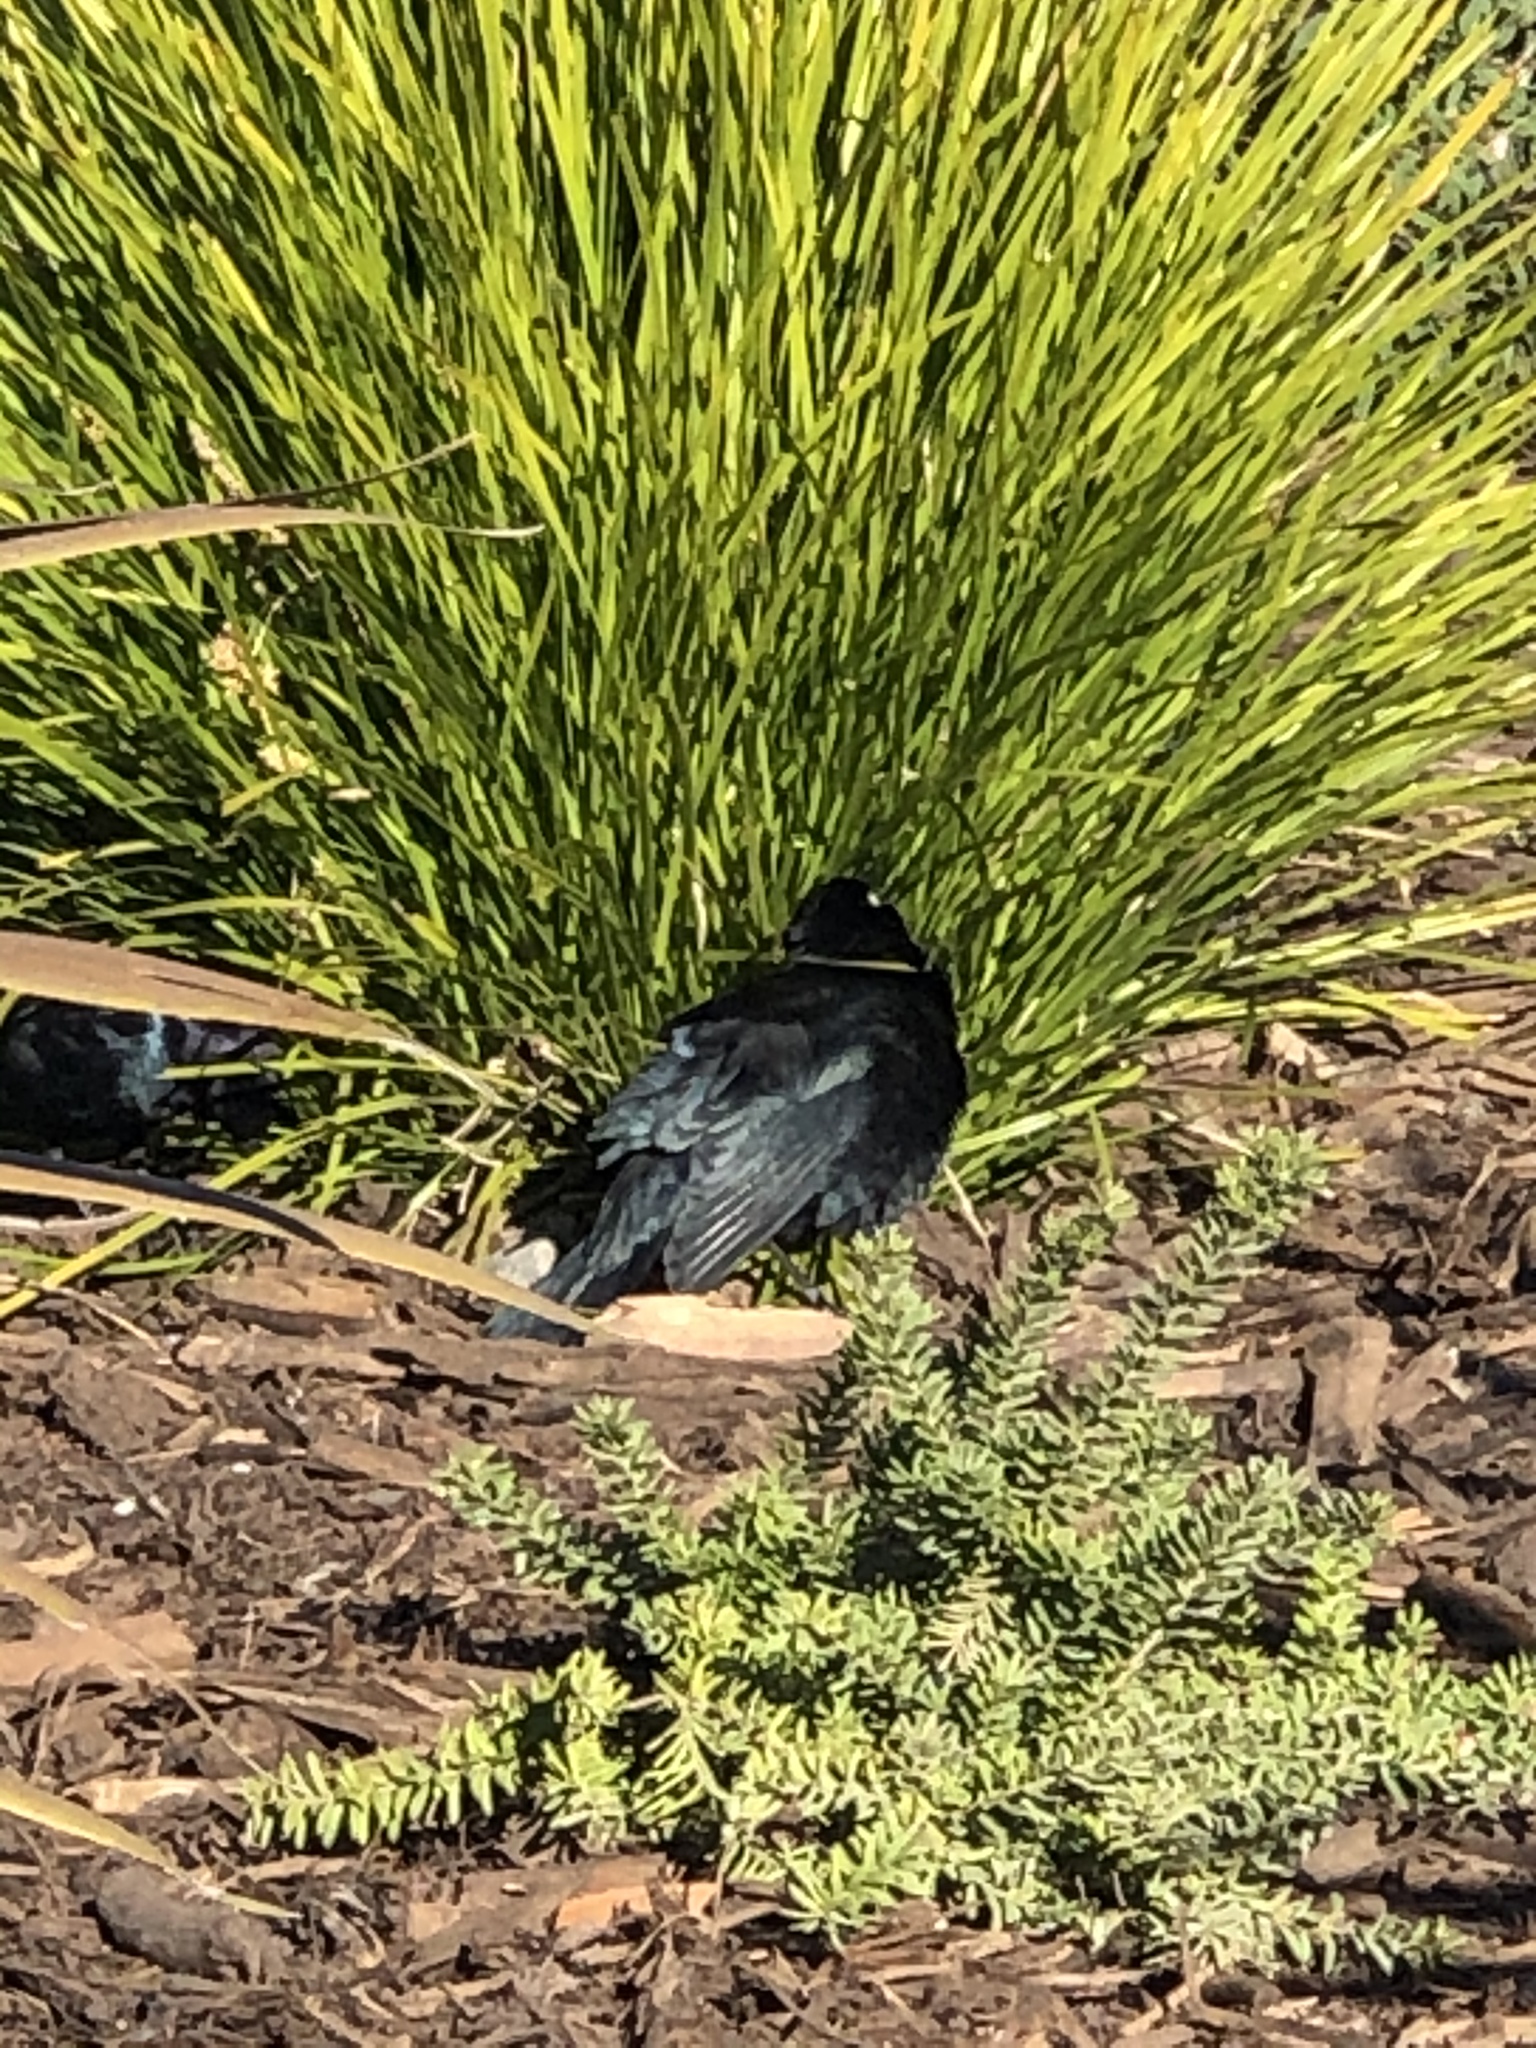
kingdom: Animalia
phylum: Chordata
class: Aves
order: Passeriformes
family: Icteridae
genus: Euphagus
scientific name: Euphagus cyanocephalus
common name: Brewer's blackbird
